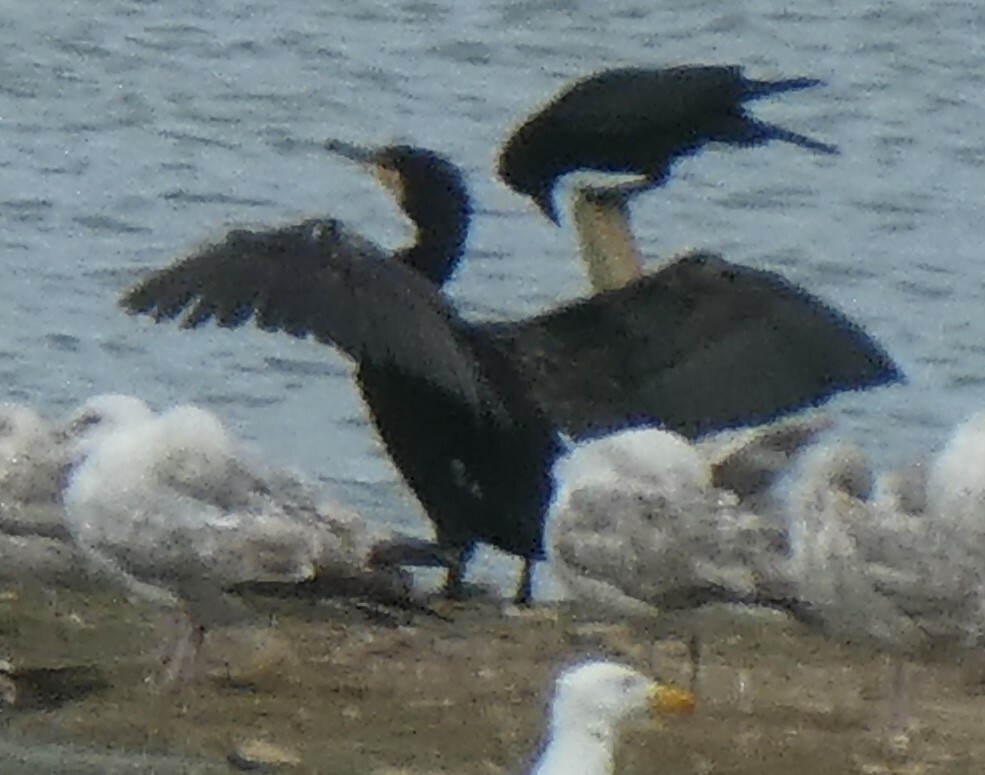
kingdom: Animalia
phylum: Chordata
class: Aves
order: Suliformes
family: Phalacrocoracidae
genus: Phalacrocorax
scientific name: Phalacrocorax carbo
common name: Great cormorant
